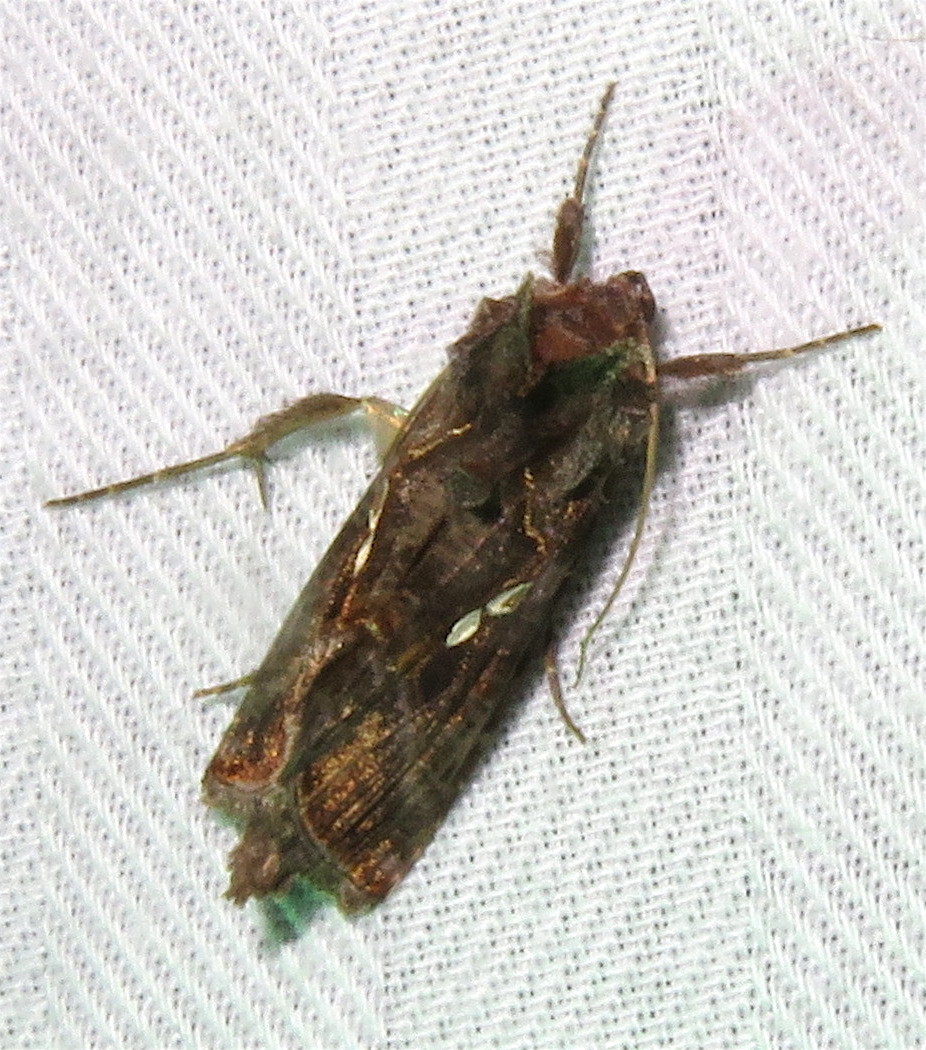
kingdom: Animalia
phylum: Arthropoda
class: Insecta
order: Lepidoptera
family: Noctuidae
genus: Chrysodeixis
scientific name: Chrysodeixis includens
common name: Cutworm moth
